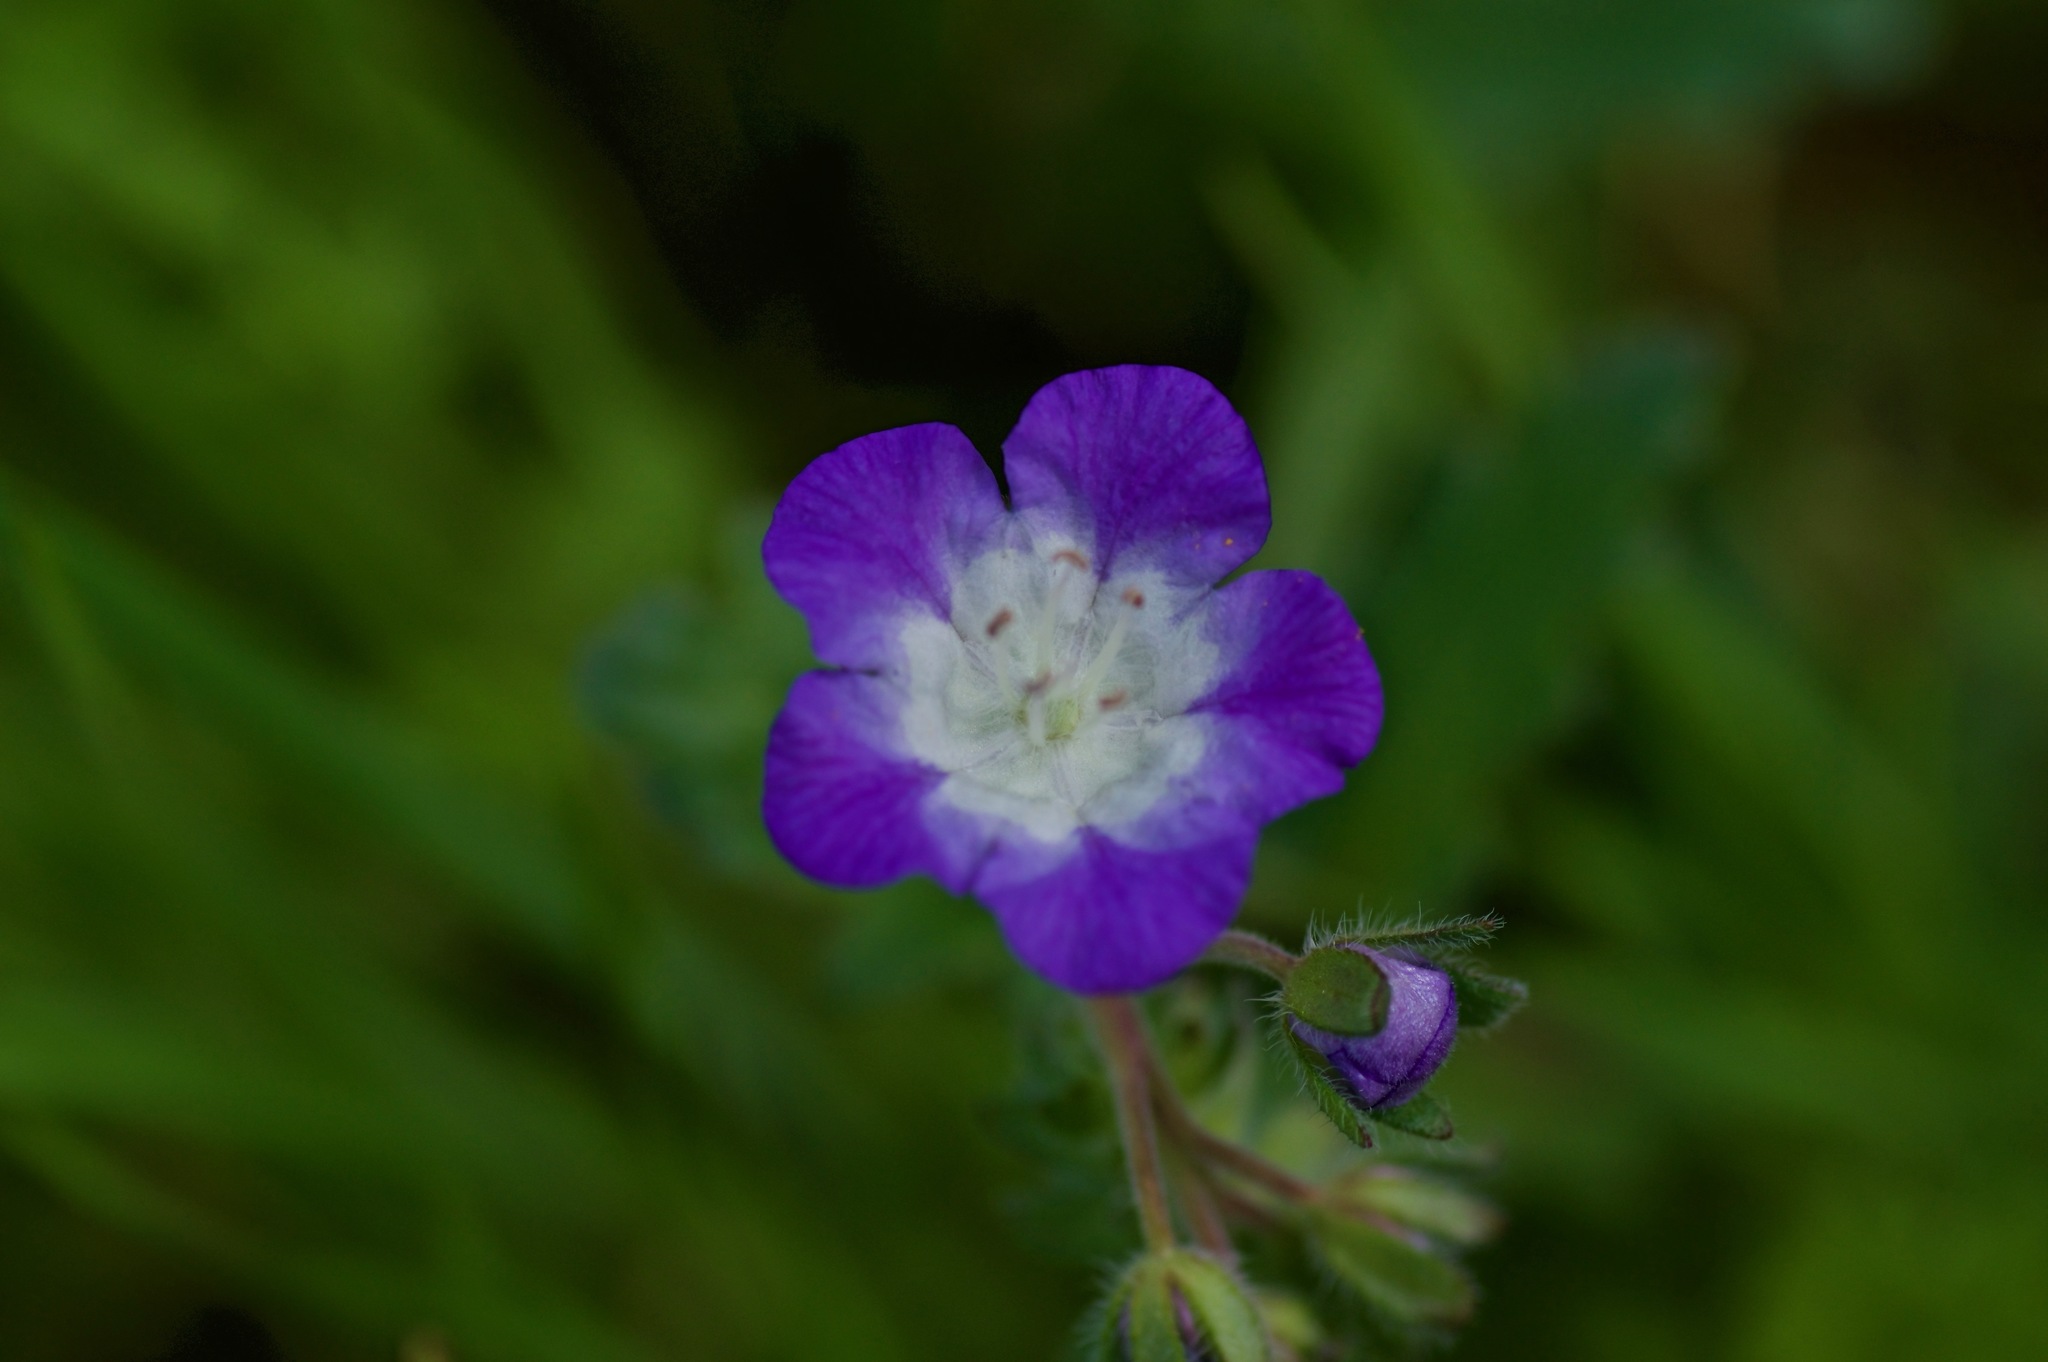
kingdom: Plantae
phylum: Tracheophyta
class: Magnoliopsida
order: Boraginales
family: Hydrophyllaceae
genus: Phacelia
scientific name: Phacelia patuliflora
